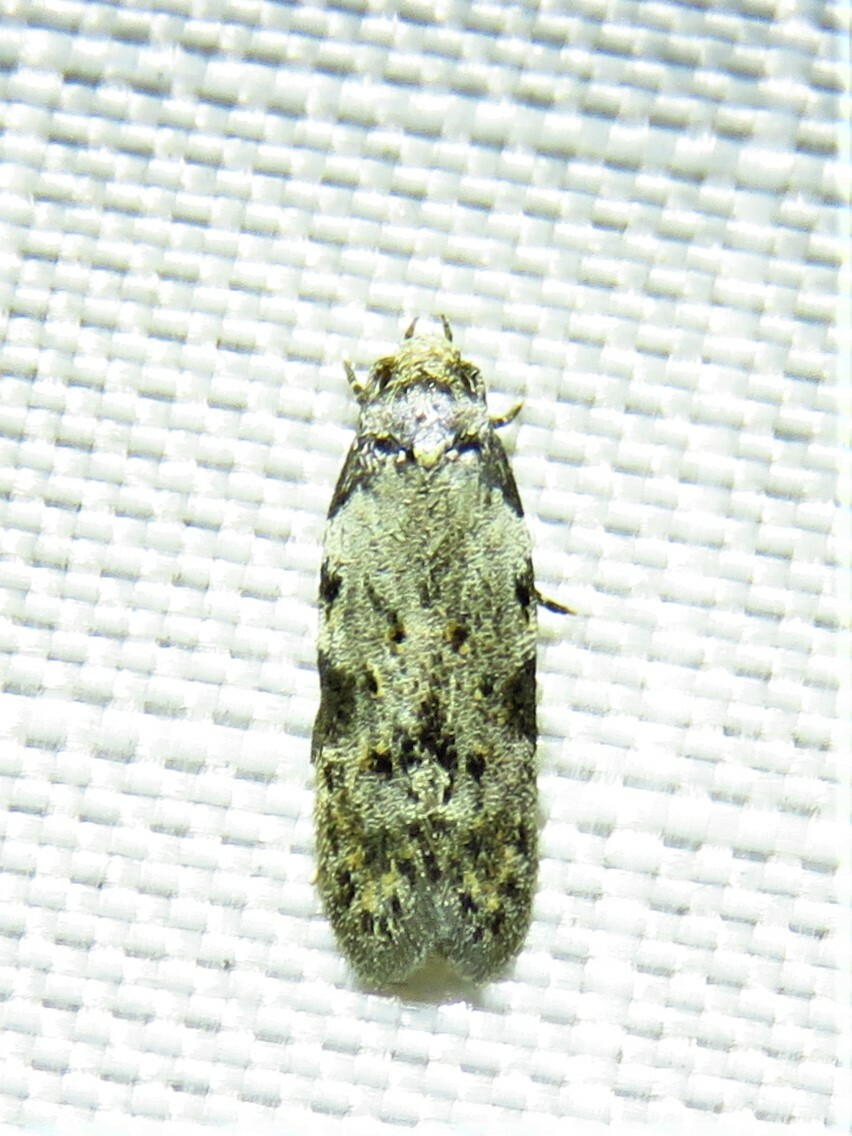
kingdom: Animalia
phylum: Arthropoda
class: Insecta
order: Lepidoptera
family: Autostichidae
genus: Taygete
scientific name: Taygete attributella
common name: Triangle-marked twirler moth
